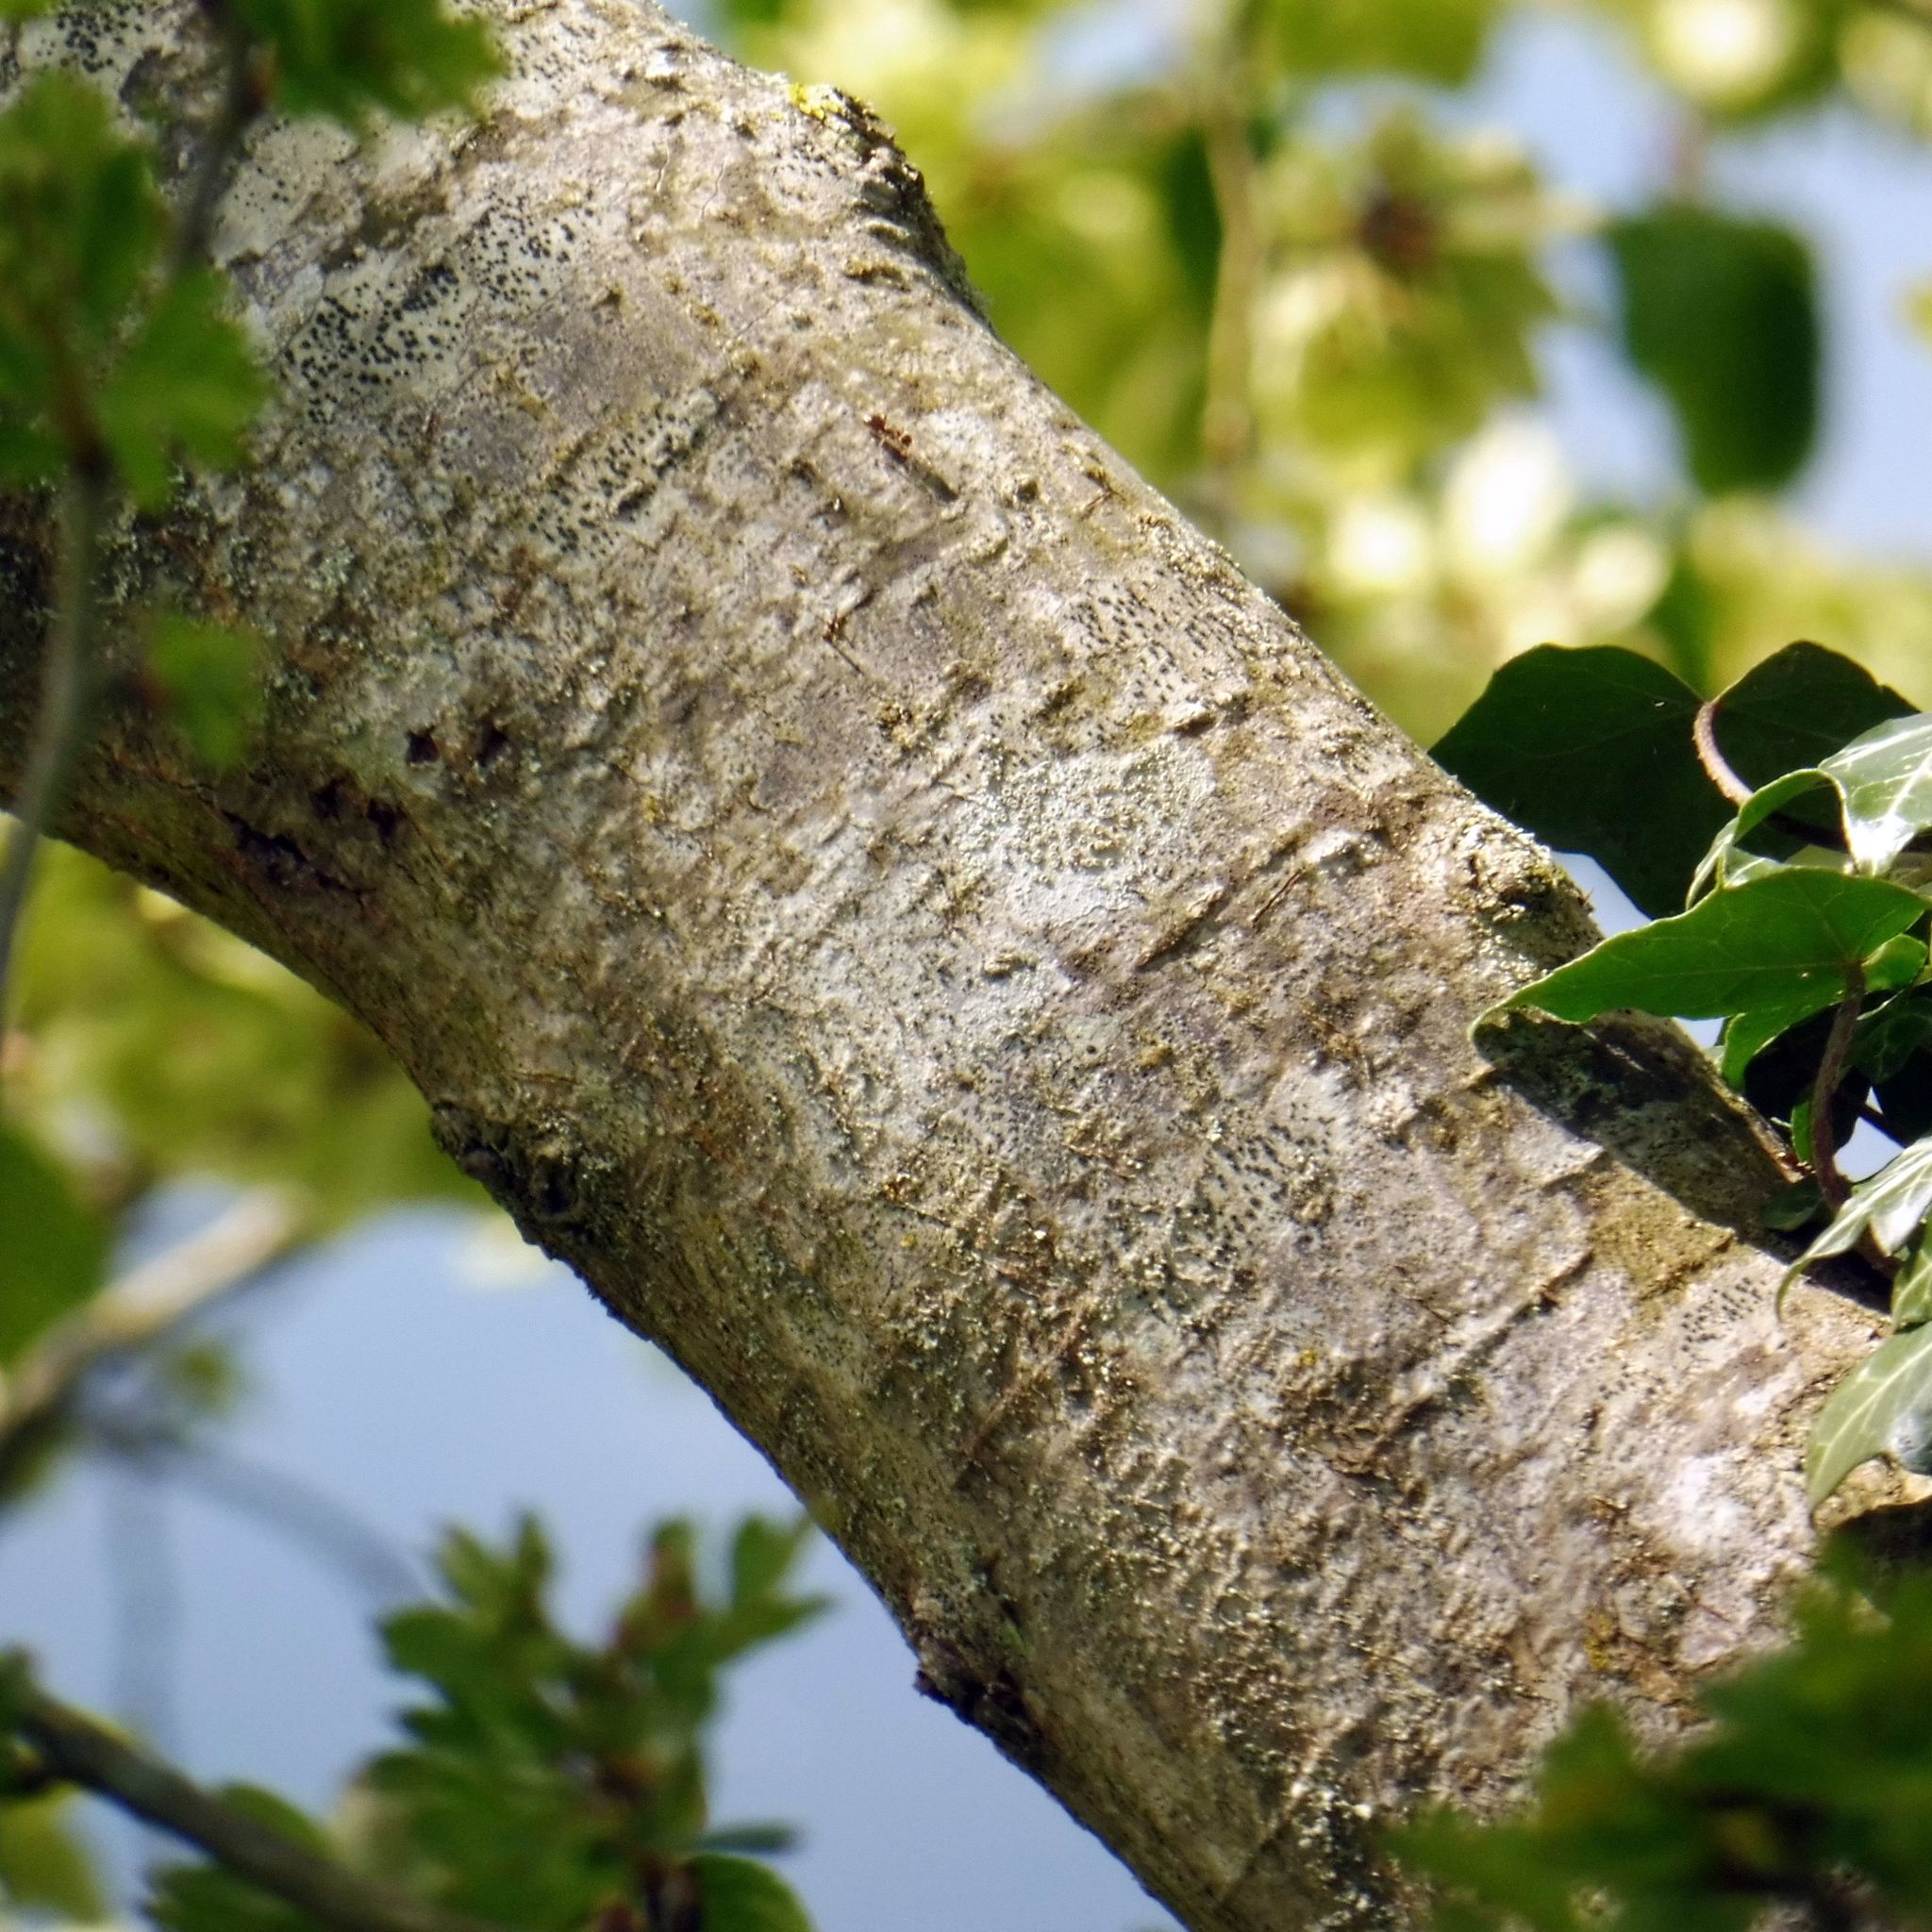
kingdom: Plantae
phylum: Tracheophyta
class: Magnoliopsida
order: Rosales
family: Ulmaceae
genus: Ulmus
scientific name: Ulmus glabra
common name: Wych elm
